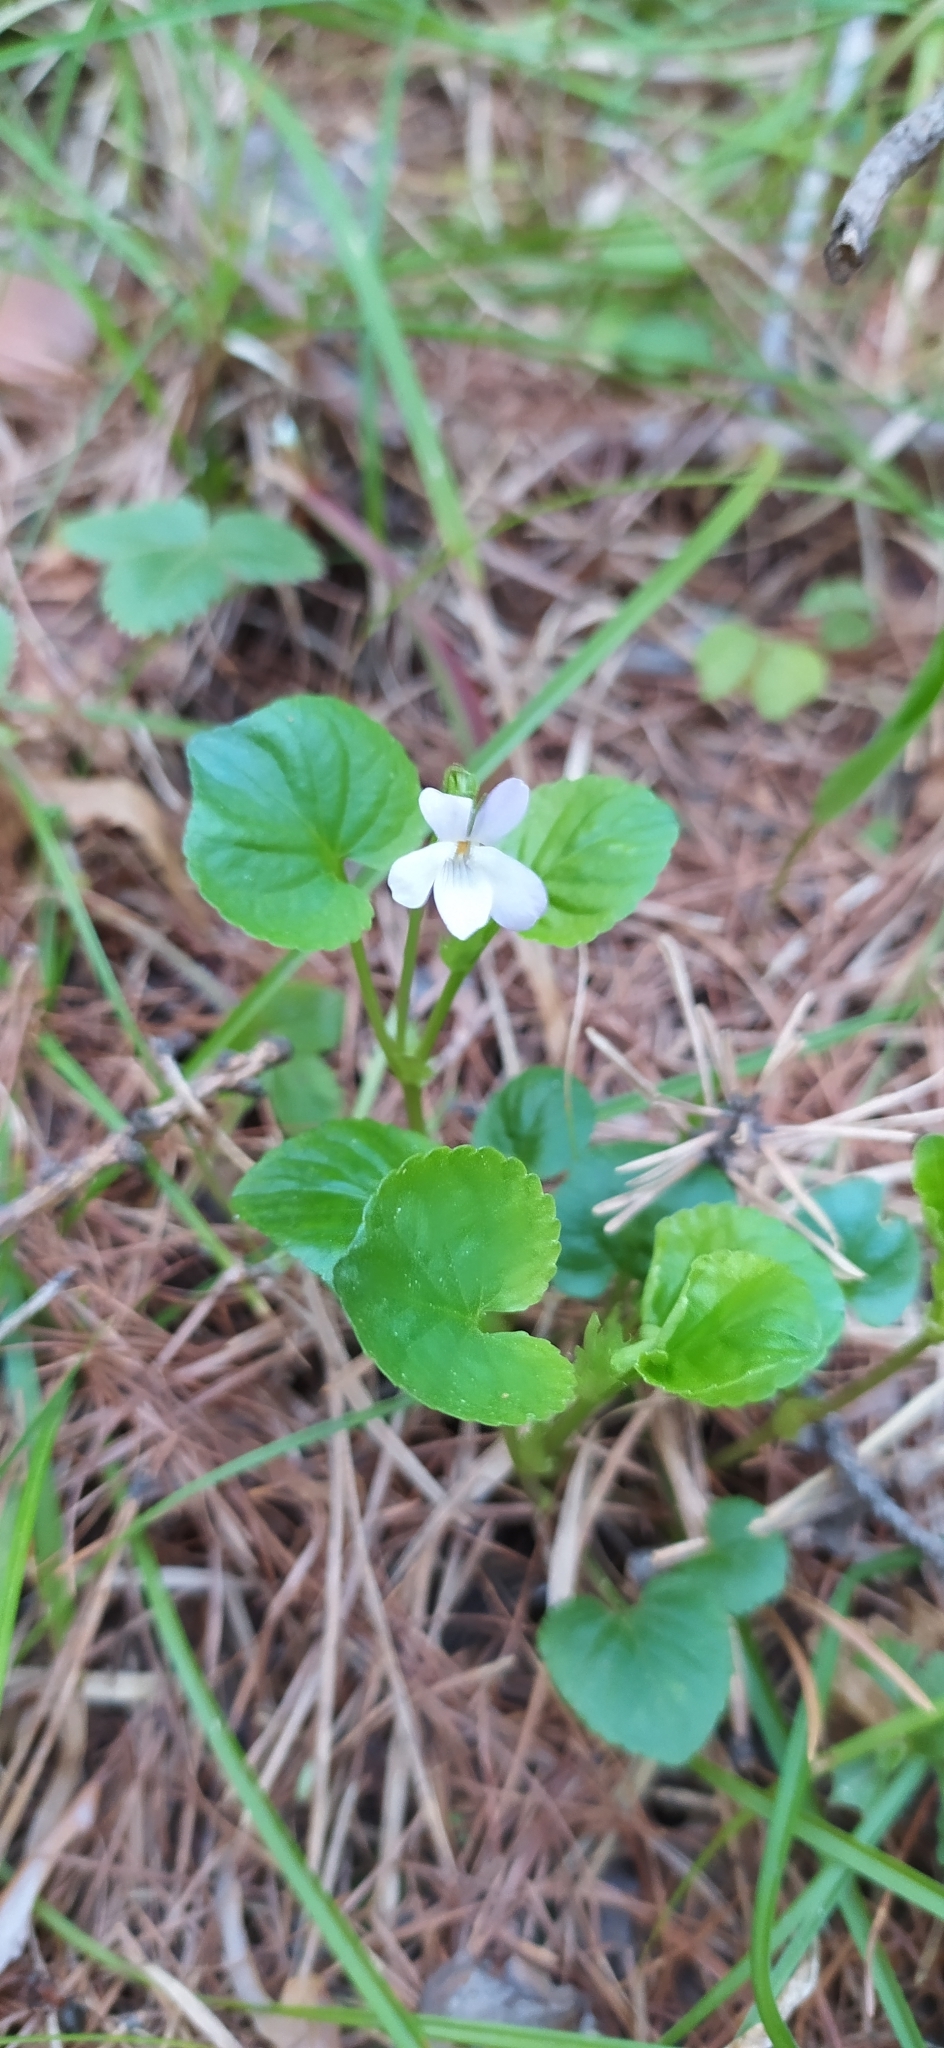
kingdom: Plantae
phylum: Tracheophyta
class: Magnoliopsida
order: Malpighiales
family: Violaceae
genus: Viola
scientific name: Viola mirabilis
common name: Wonder violet
